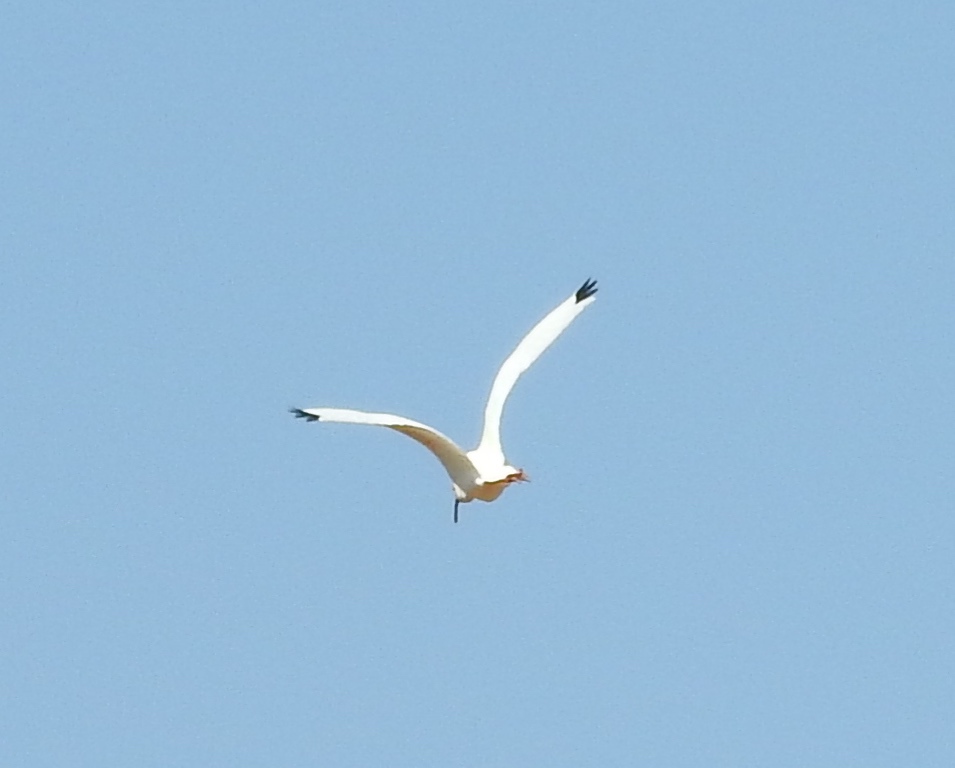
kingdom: Animalia
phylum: Chordata
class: Aves
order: Pelecaniformes
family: Threskiornithidae
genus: Eudocimus
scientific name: Eudocimus albus
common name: White ibis
